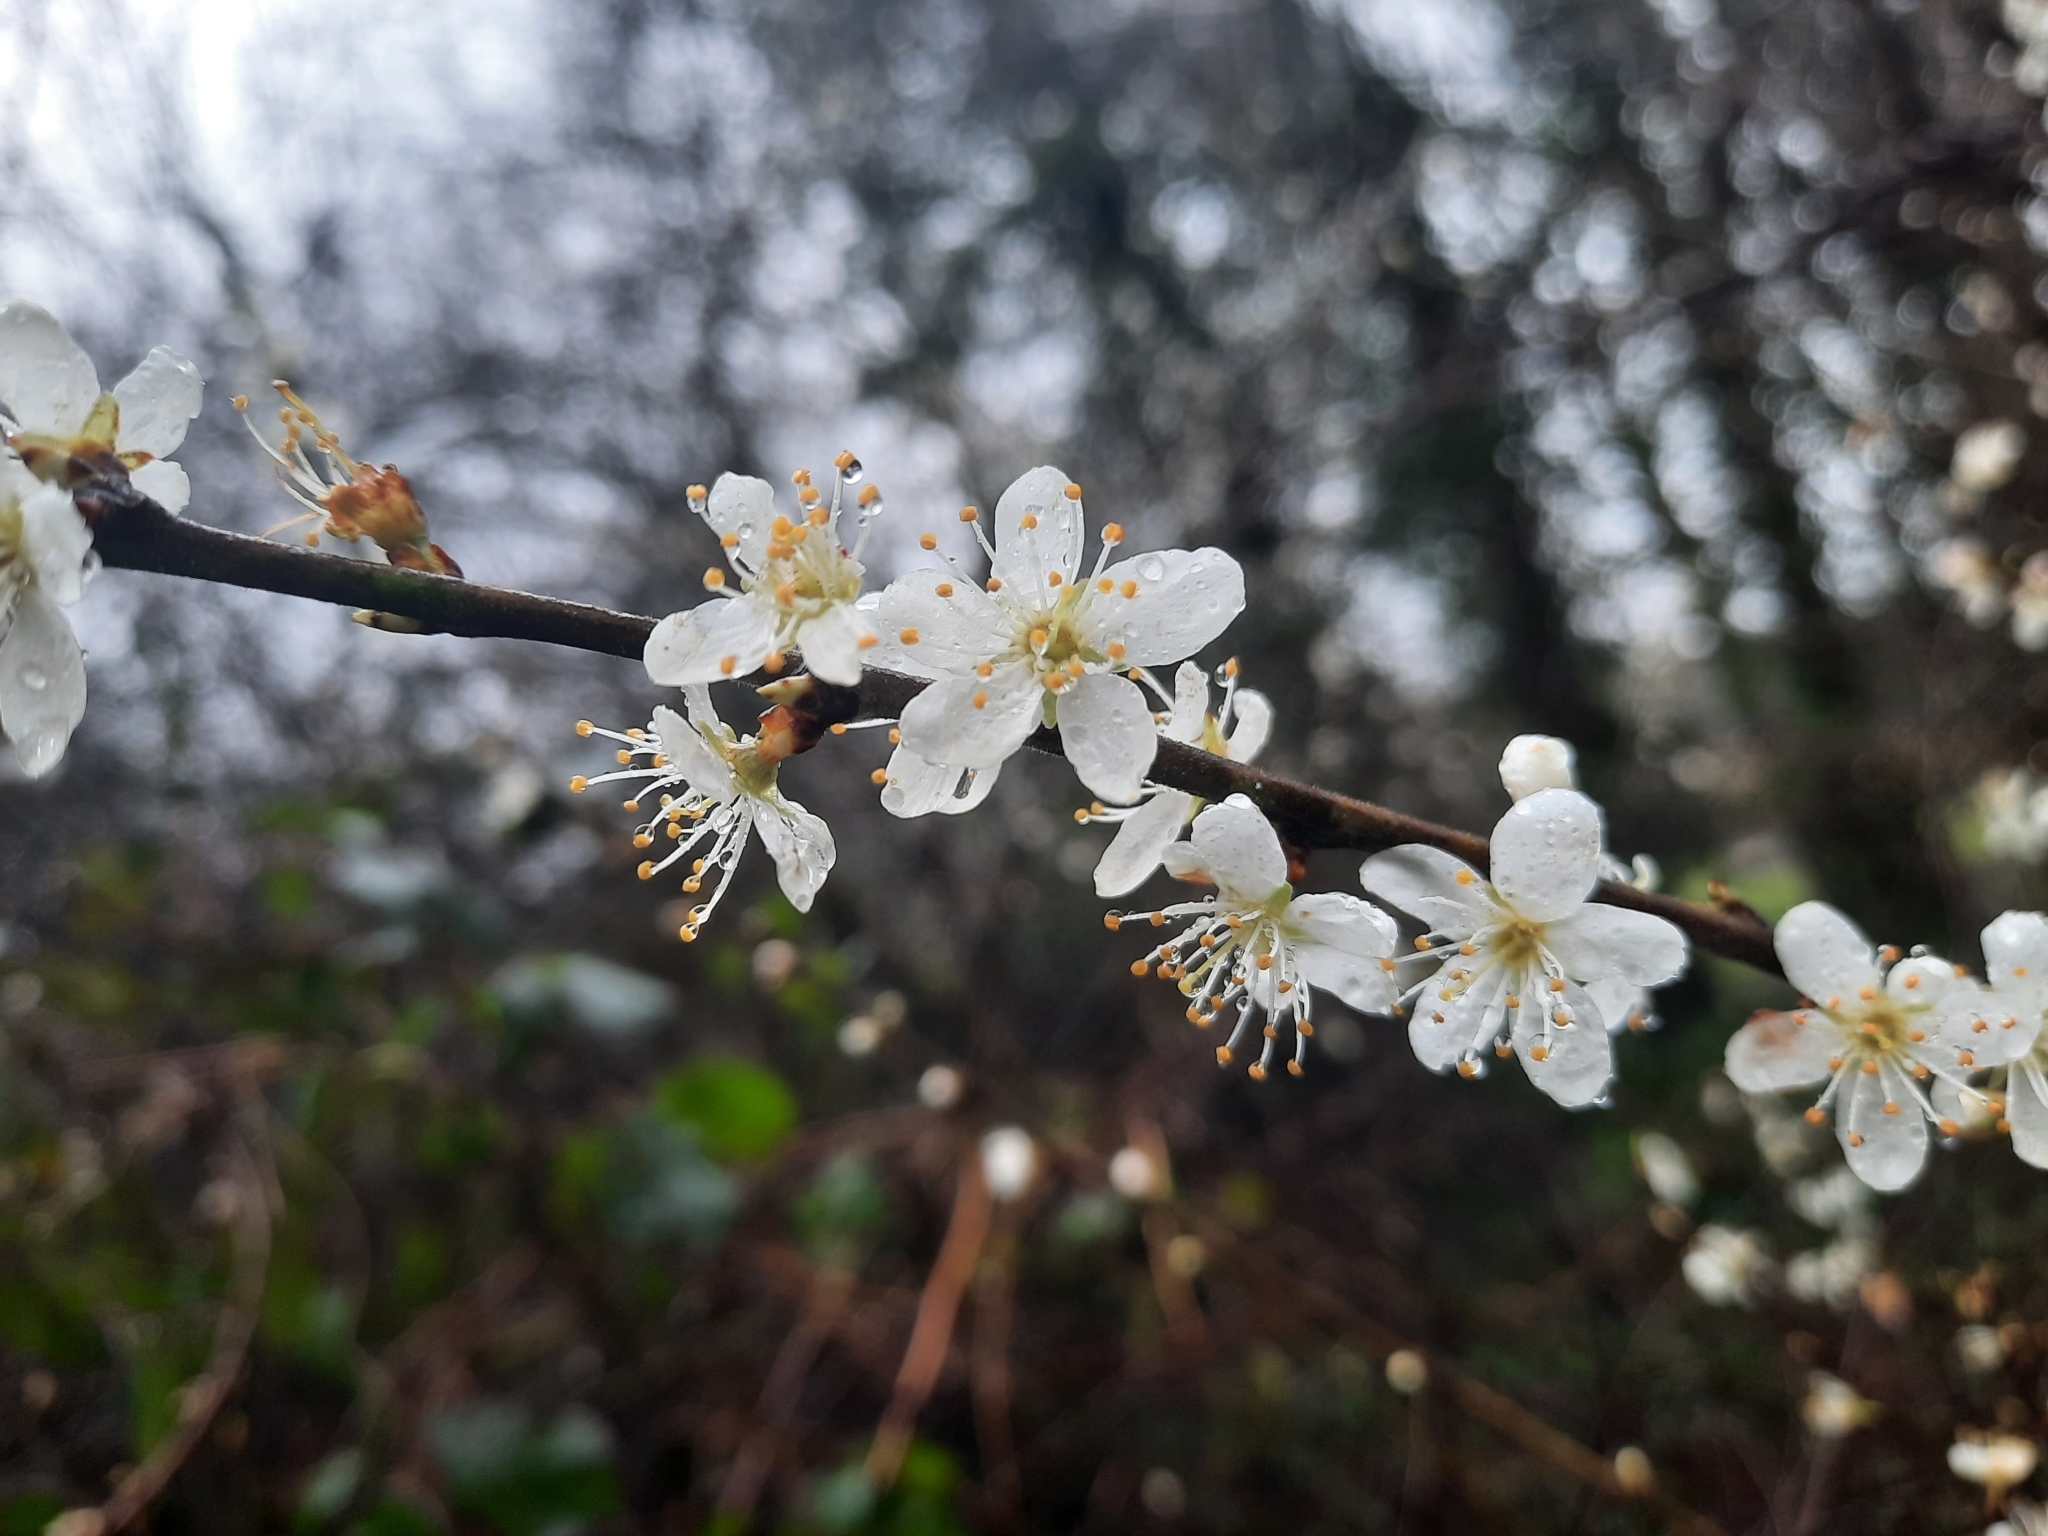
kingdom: Plantae
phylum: Tracheophyta
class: Magnoliopsida
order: Rosales
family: Rosaceae
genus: Prunus
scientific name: Prunus spinosa
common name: Blackthorn
